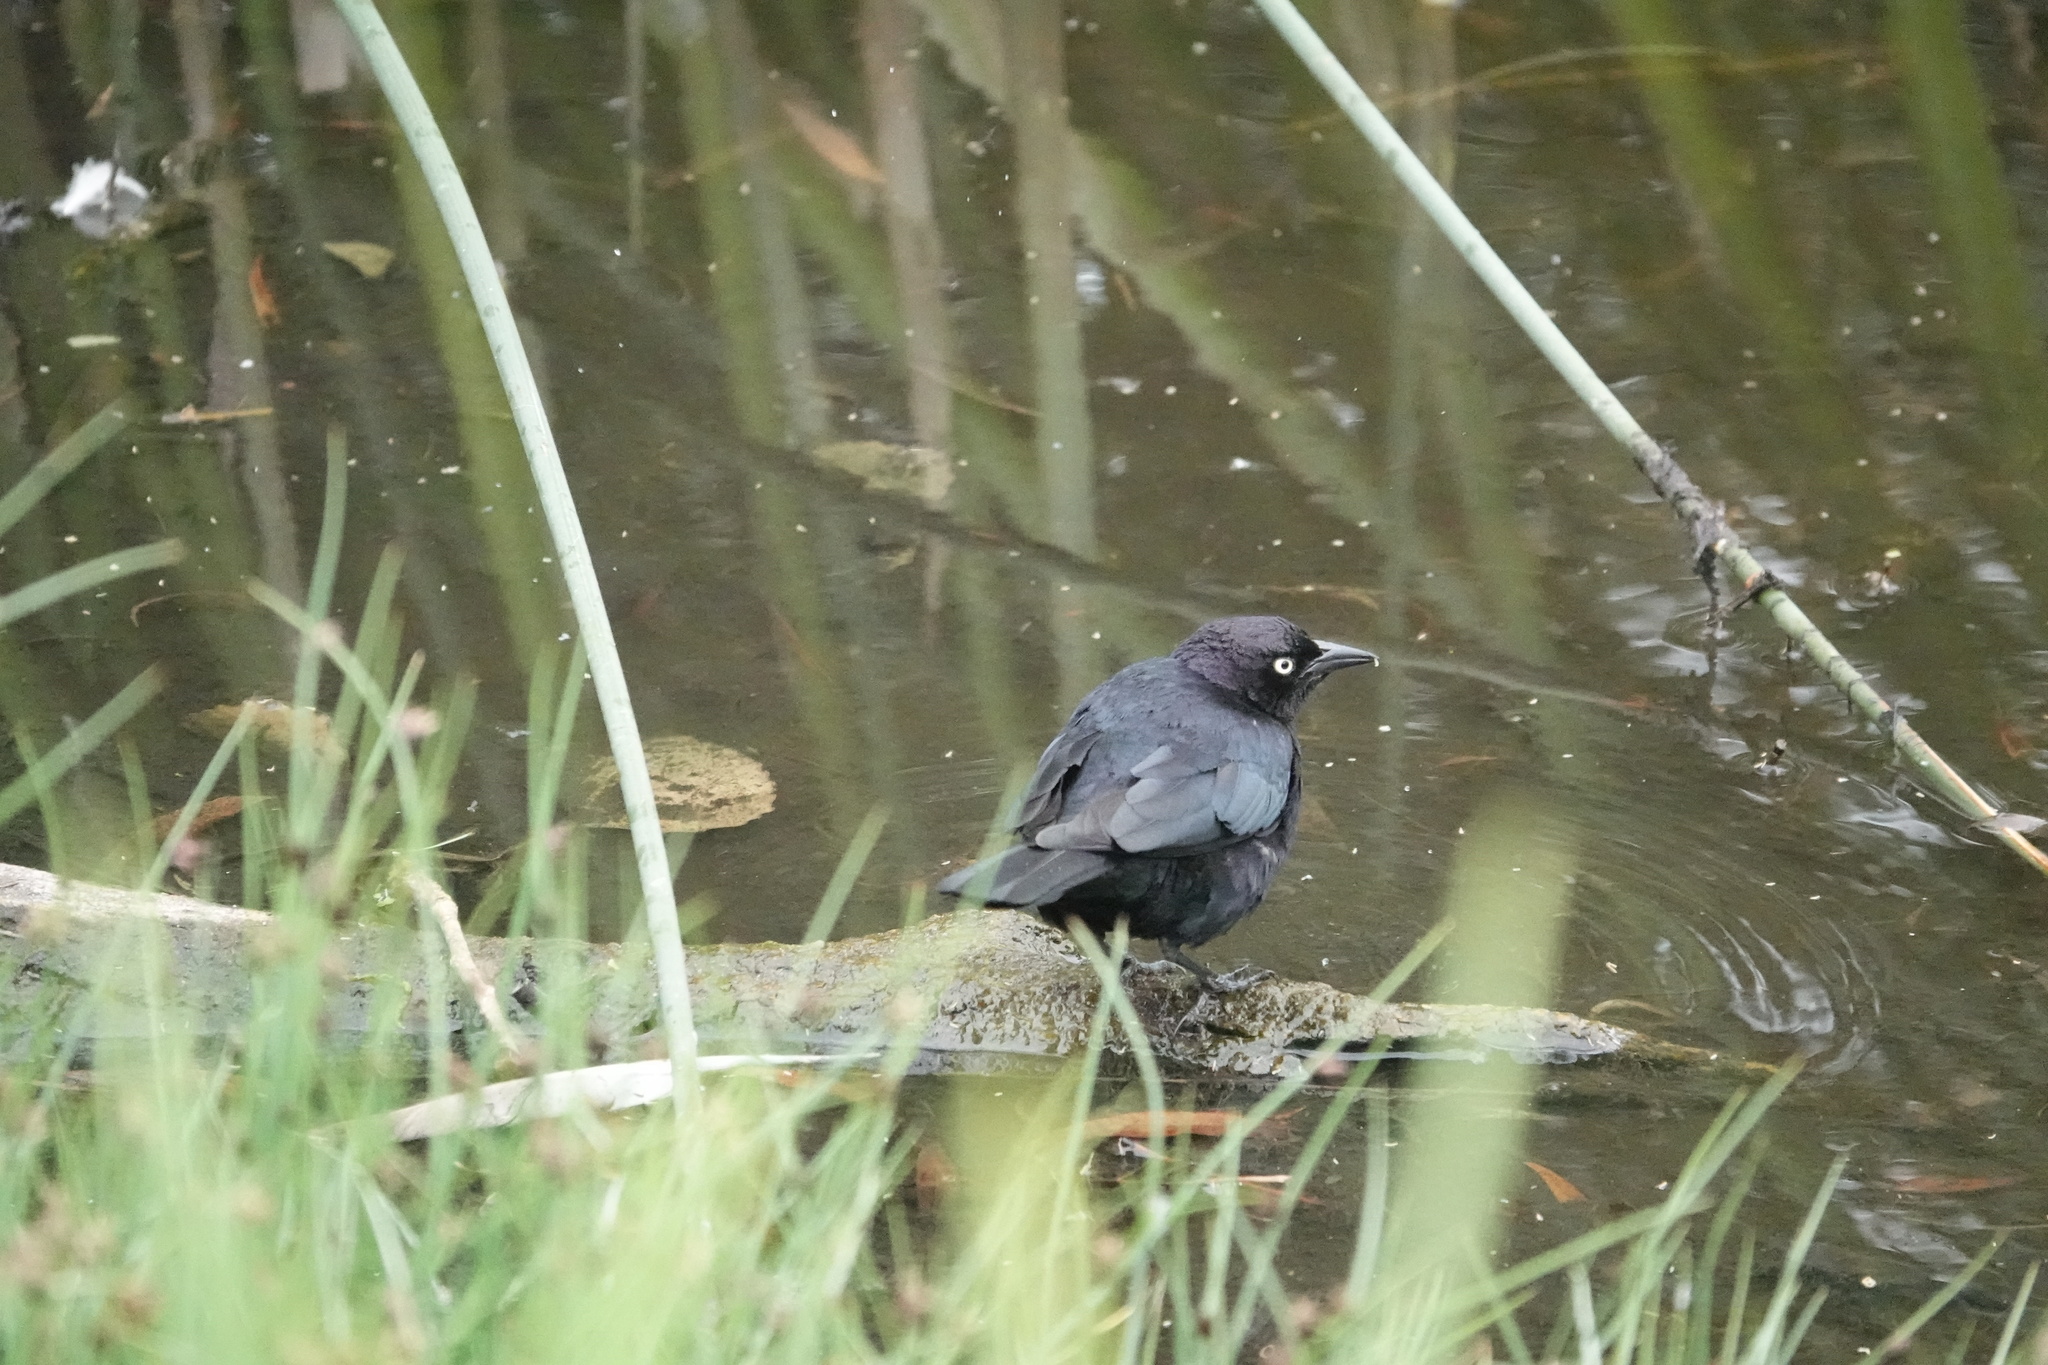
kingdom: Animalia
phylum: Chordata
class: Aves
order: Passeriformes
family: Icteridae
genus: Euphagus
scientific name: Euphagus cyanocephalus
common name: Brewer's blackbird
